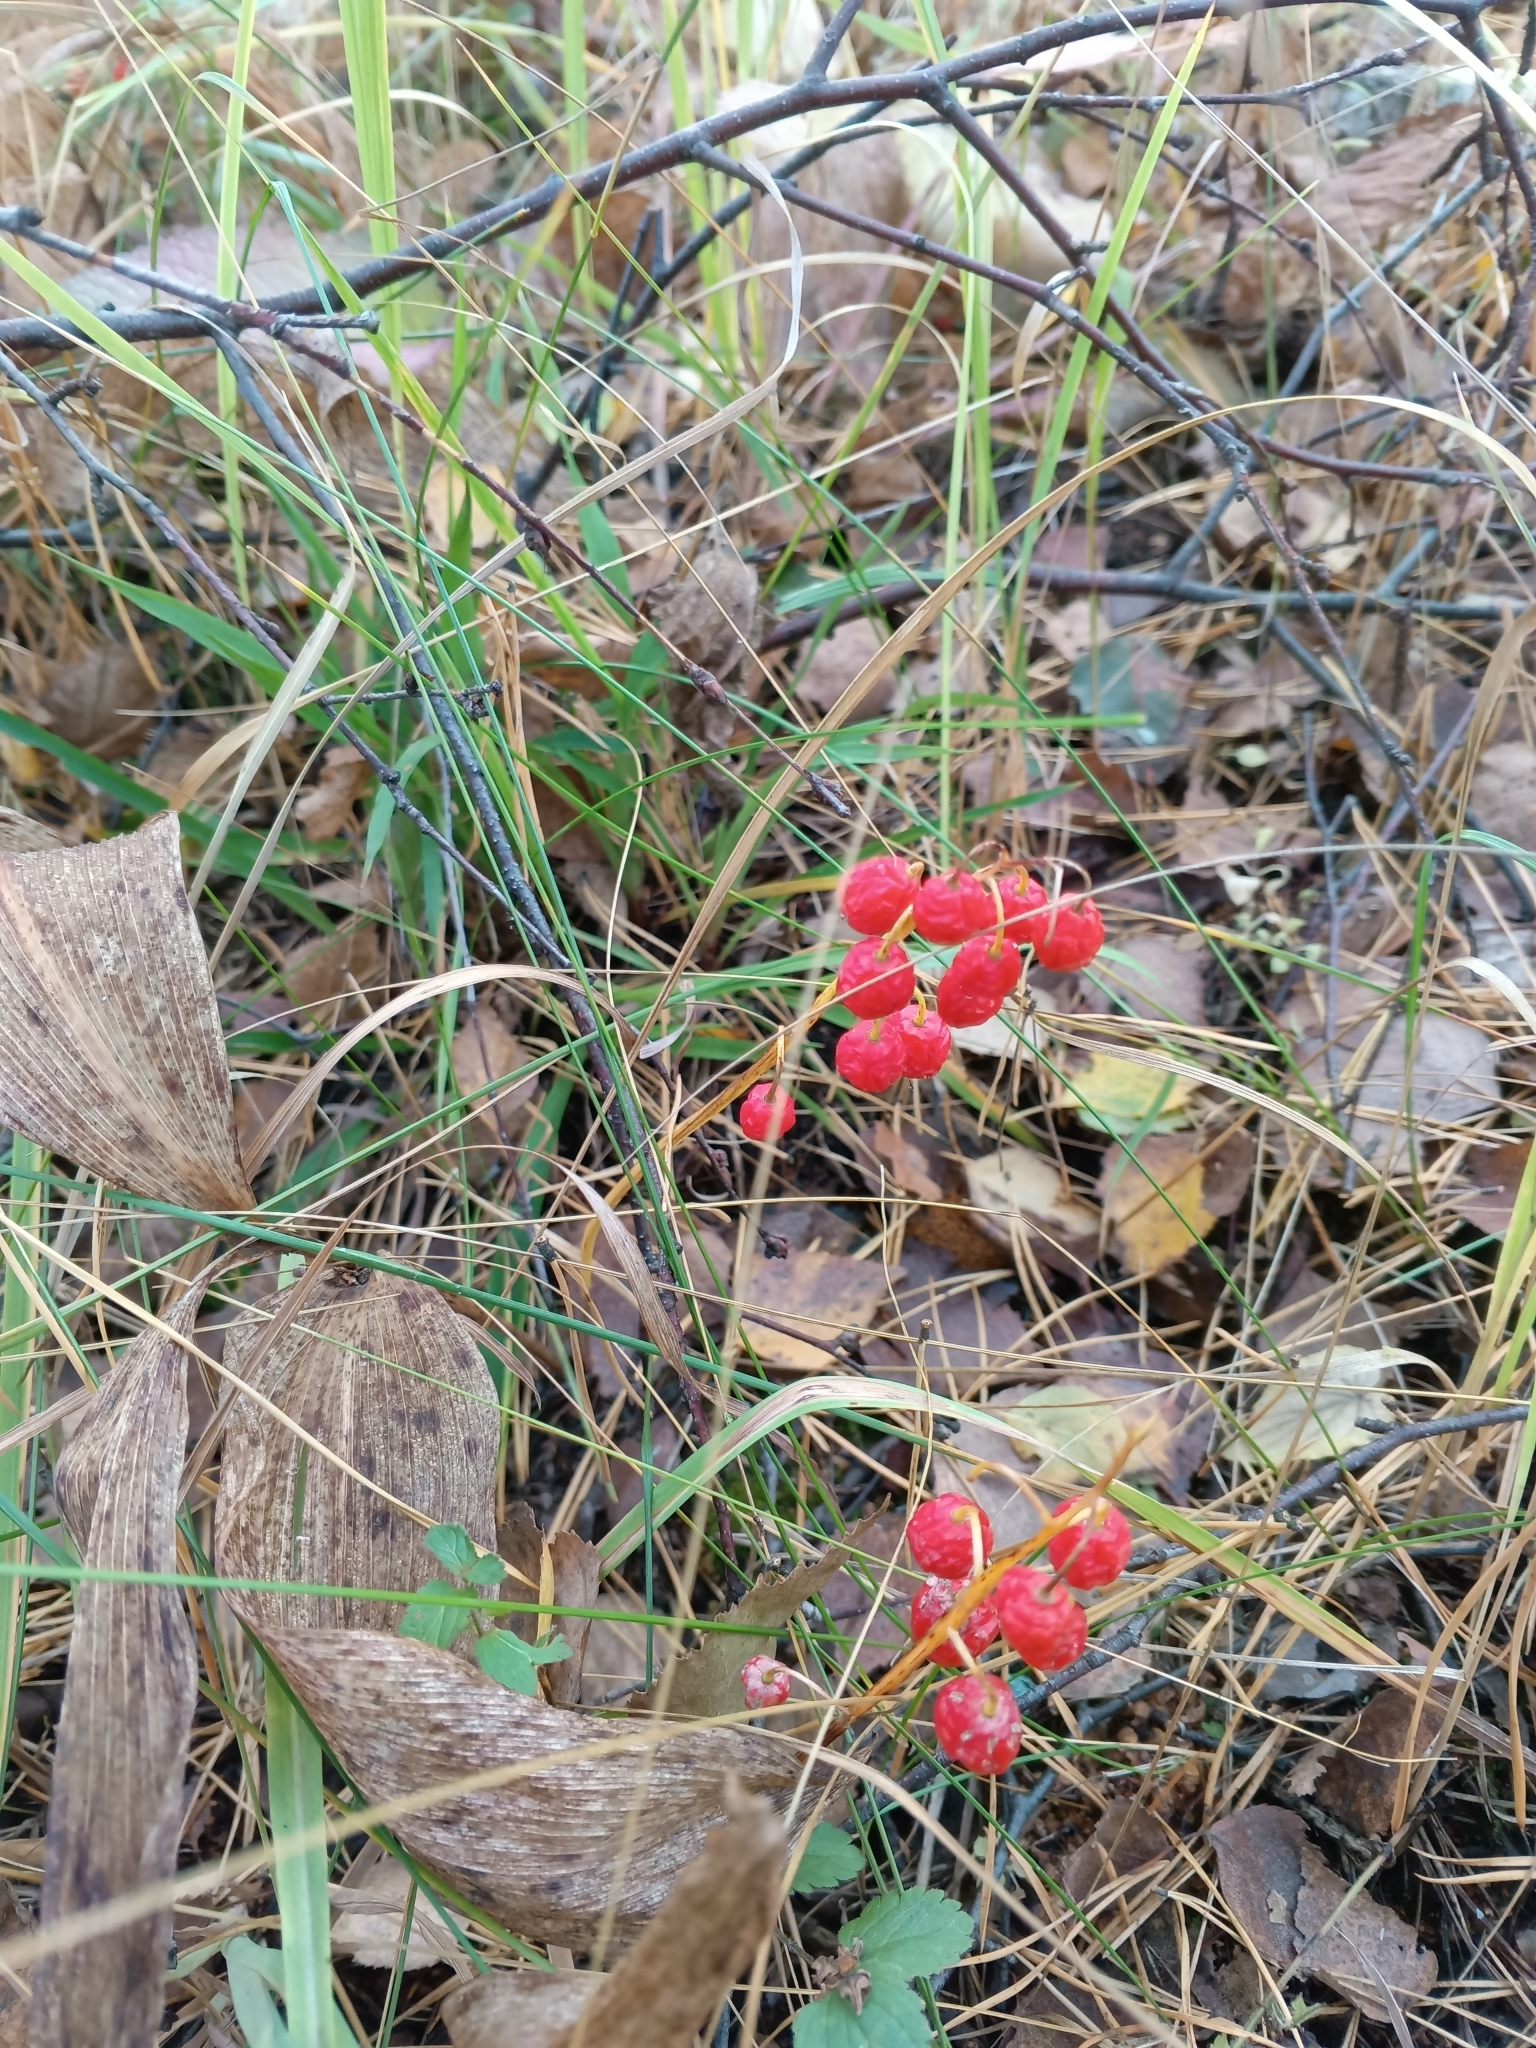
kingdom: Plantae
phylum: Tracheophyta
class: Liliopsida
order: Asparagales
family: Asparagaceae
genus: Convallaria
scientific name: Convallaria majalis
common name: Lily-of-the-valley
